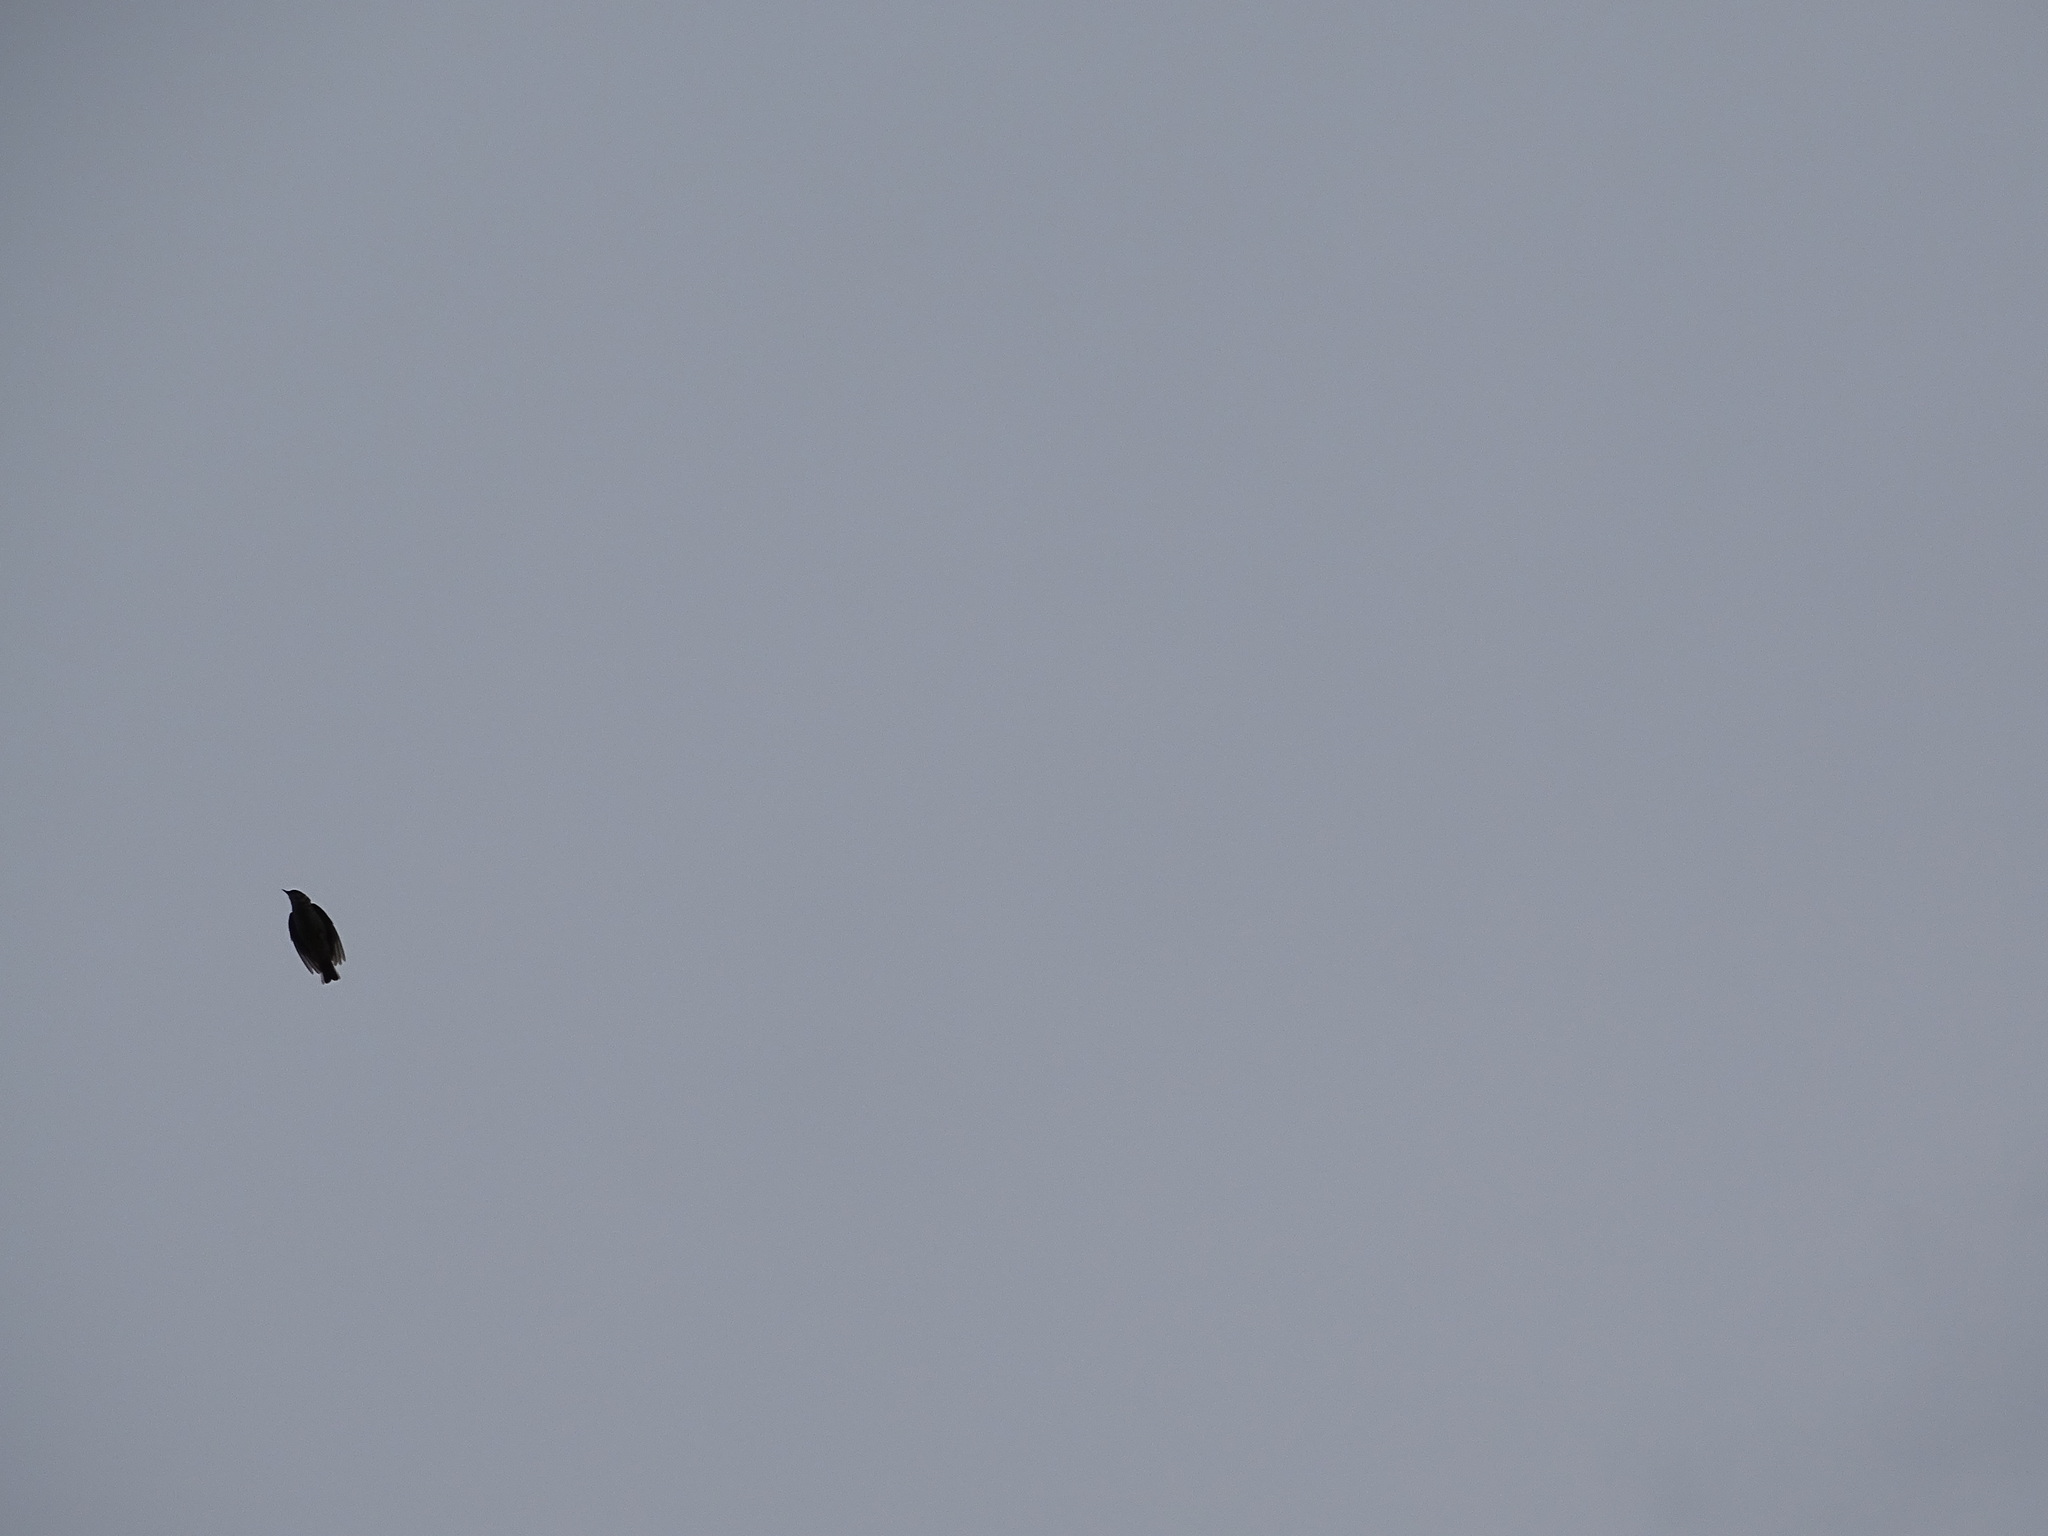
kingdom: Animalia
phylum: Chordata
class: Aves
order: Passeriformes
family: Alaudidae
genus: Lullula
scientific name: Lullula arborea
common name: Woodlark
